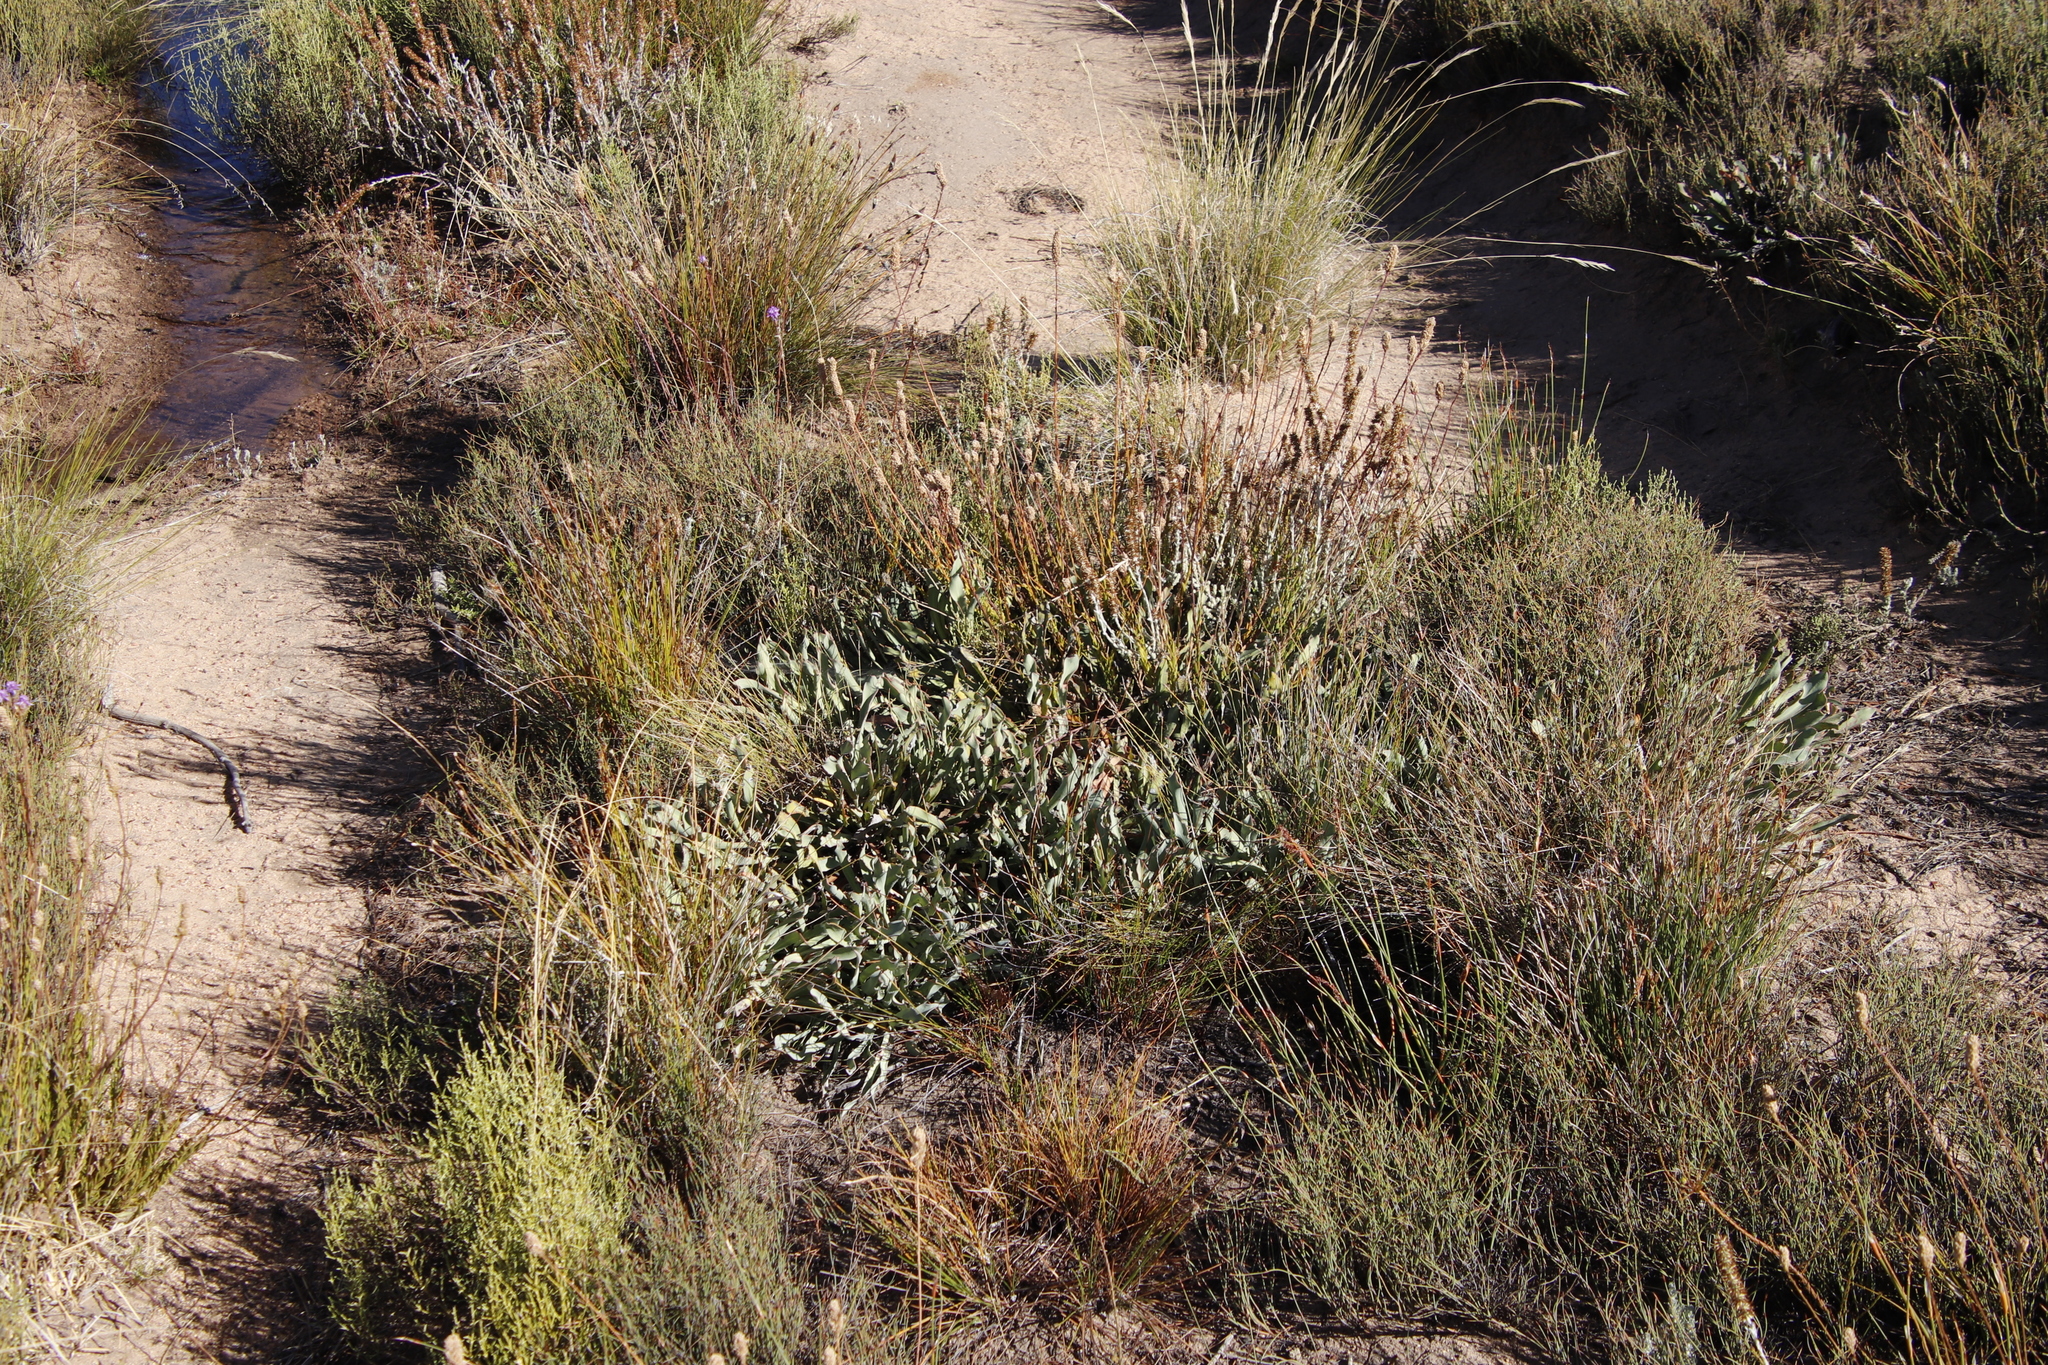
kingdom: Plantae
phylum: Tracheophyta
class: Magnoliopsida
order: Proteales
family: Proteaceae
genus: Protea
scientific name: Protea laevis
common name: Smooth-leaf sugarbush
